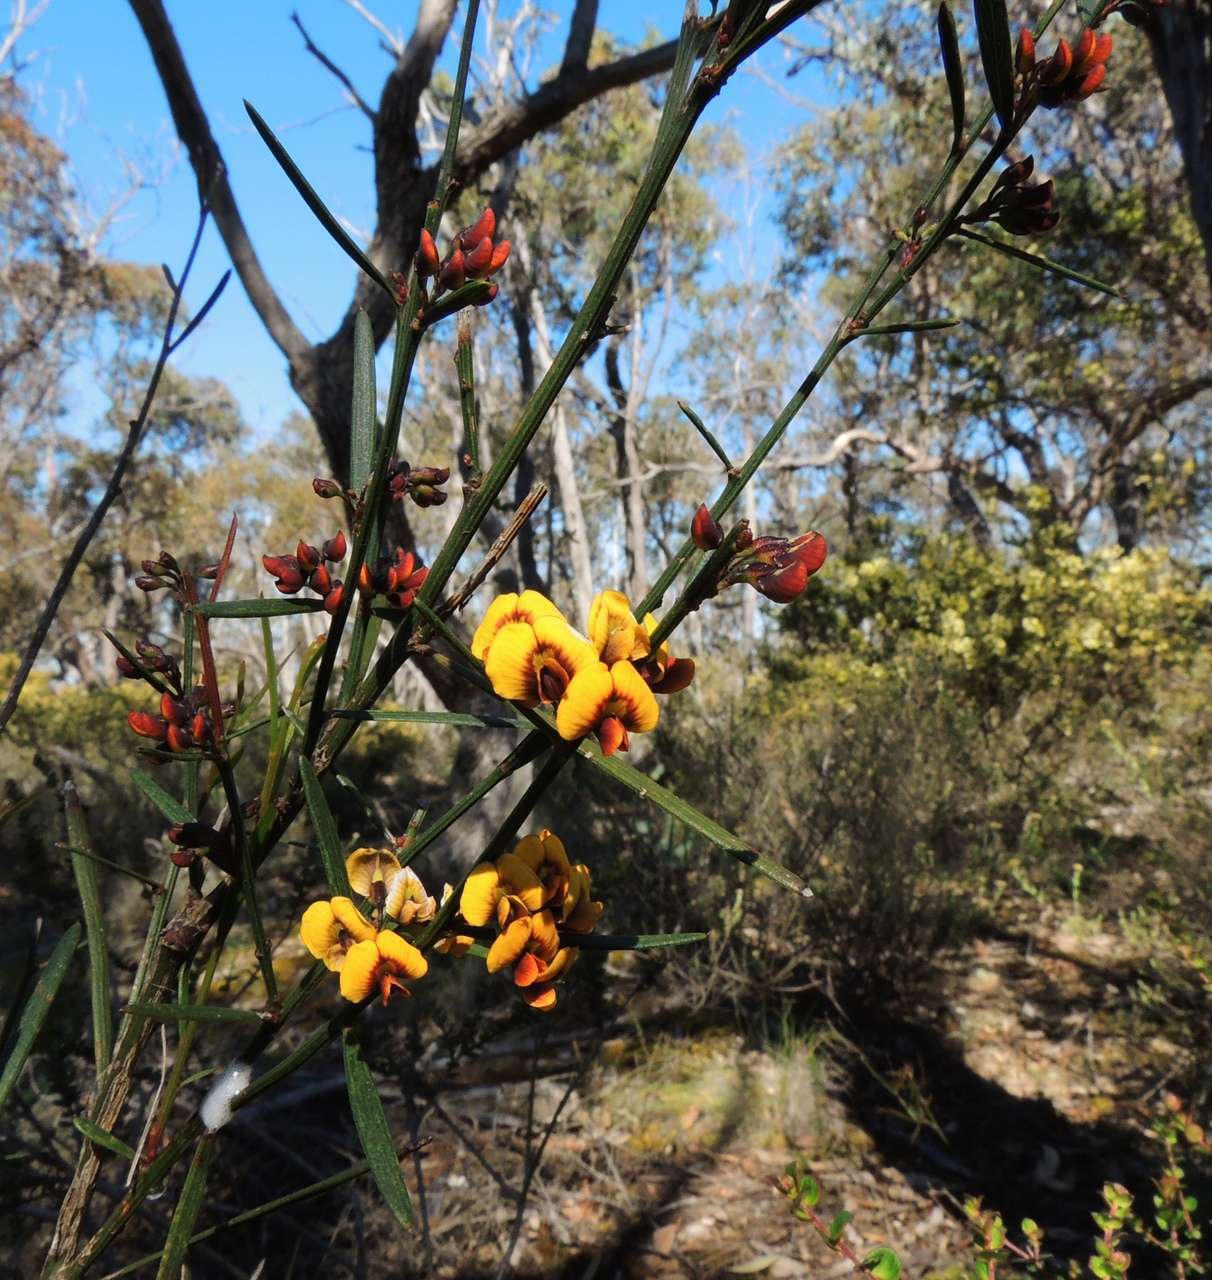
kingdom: Plantae
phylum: Tracheophyta
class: Magnoliopsida
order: Fabales
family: Fabaceae
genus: Daviesia
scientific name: Daviesia leptophylla
